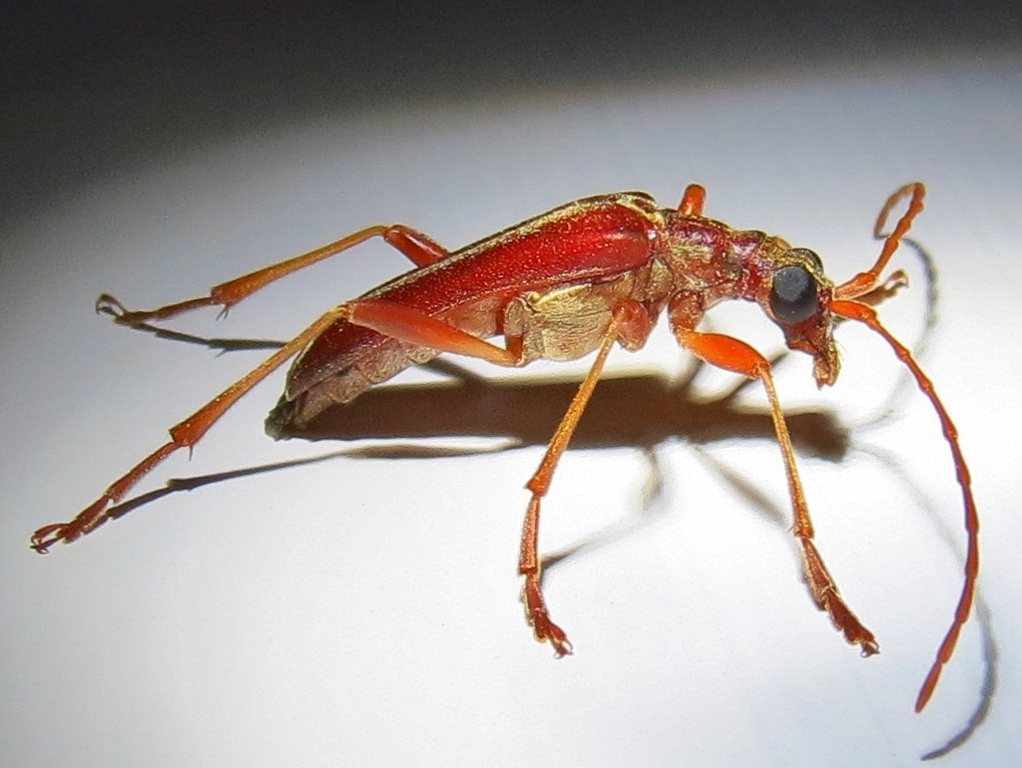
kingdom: Animalia
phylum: Arthropoda
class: Insecta
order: Coleoptera
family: Cerambycidae
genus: Stenocorus
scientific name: Stenocorus cinnamopterus
